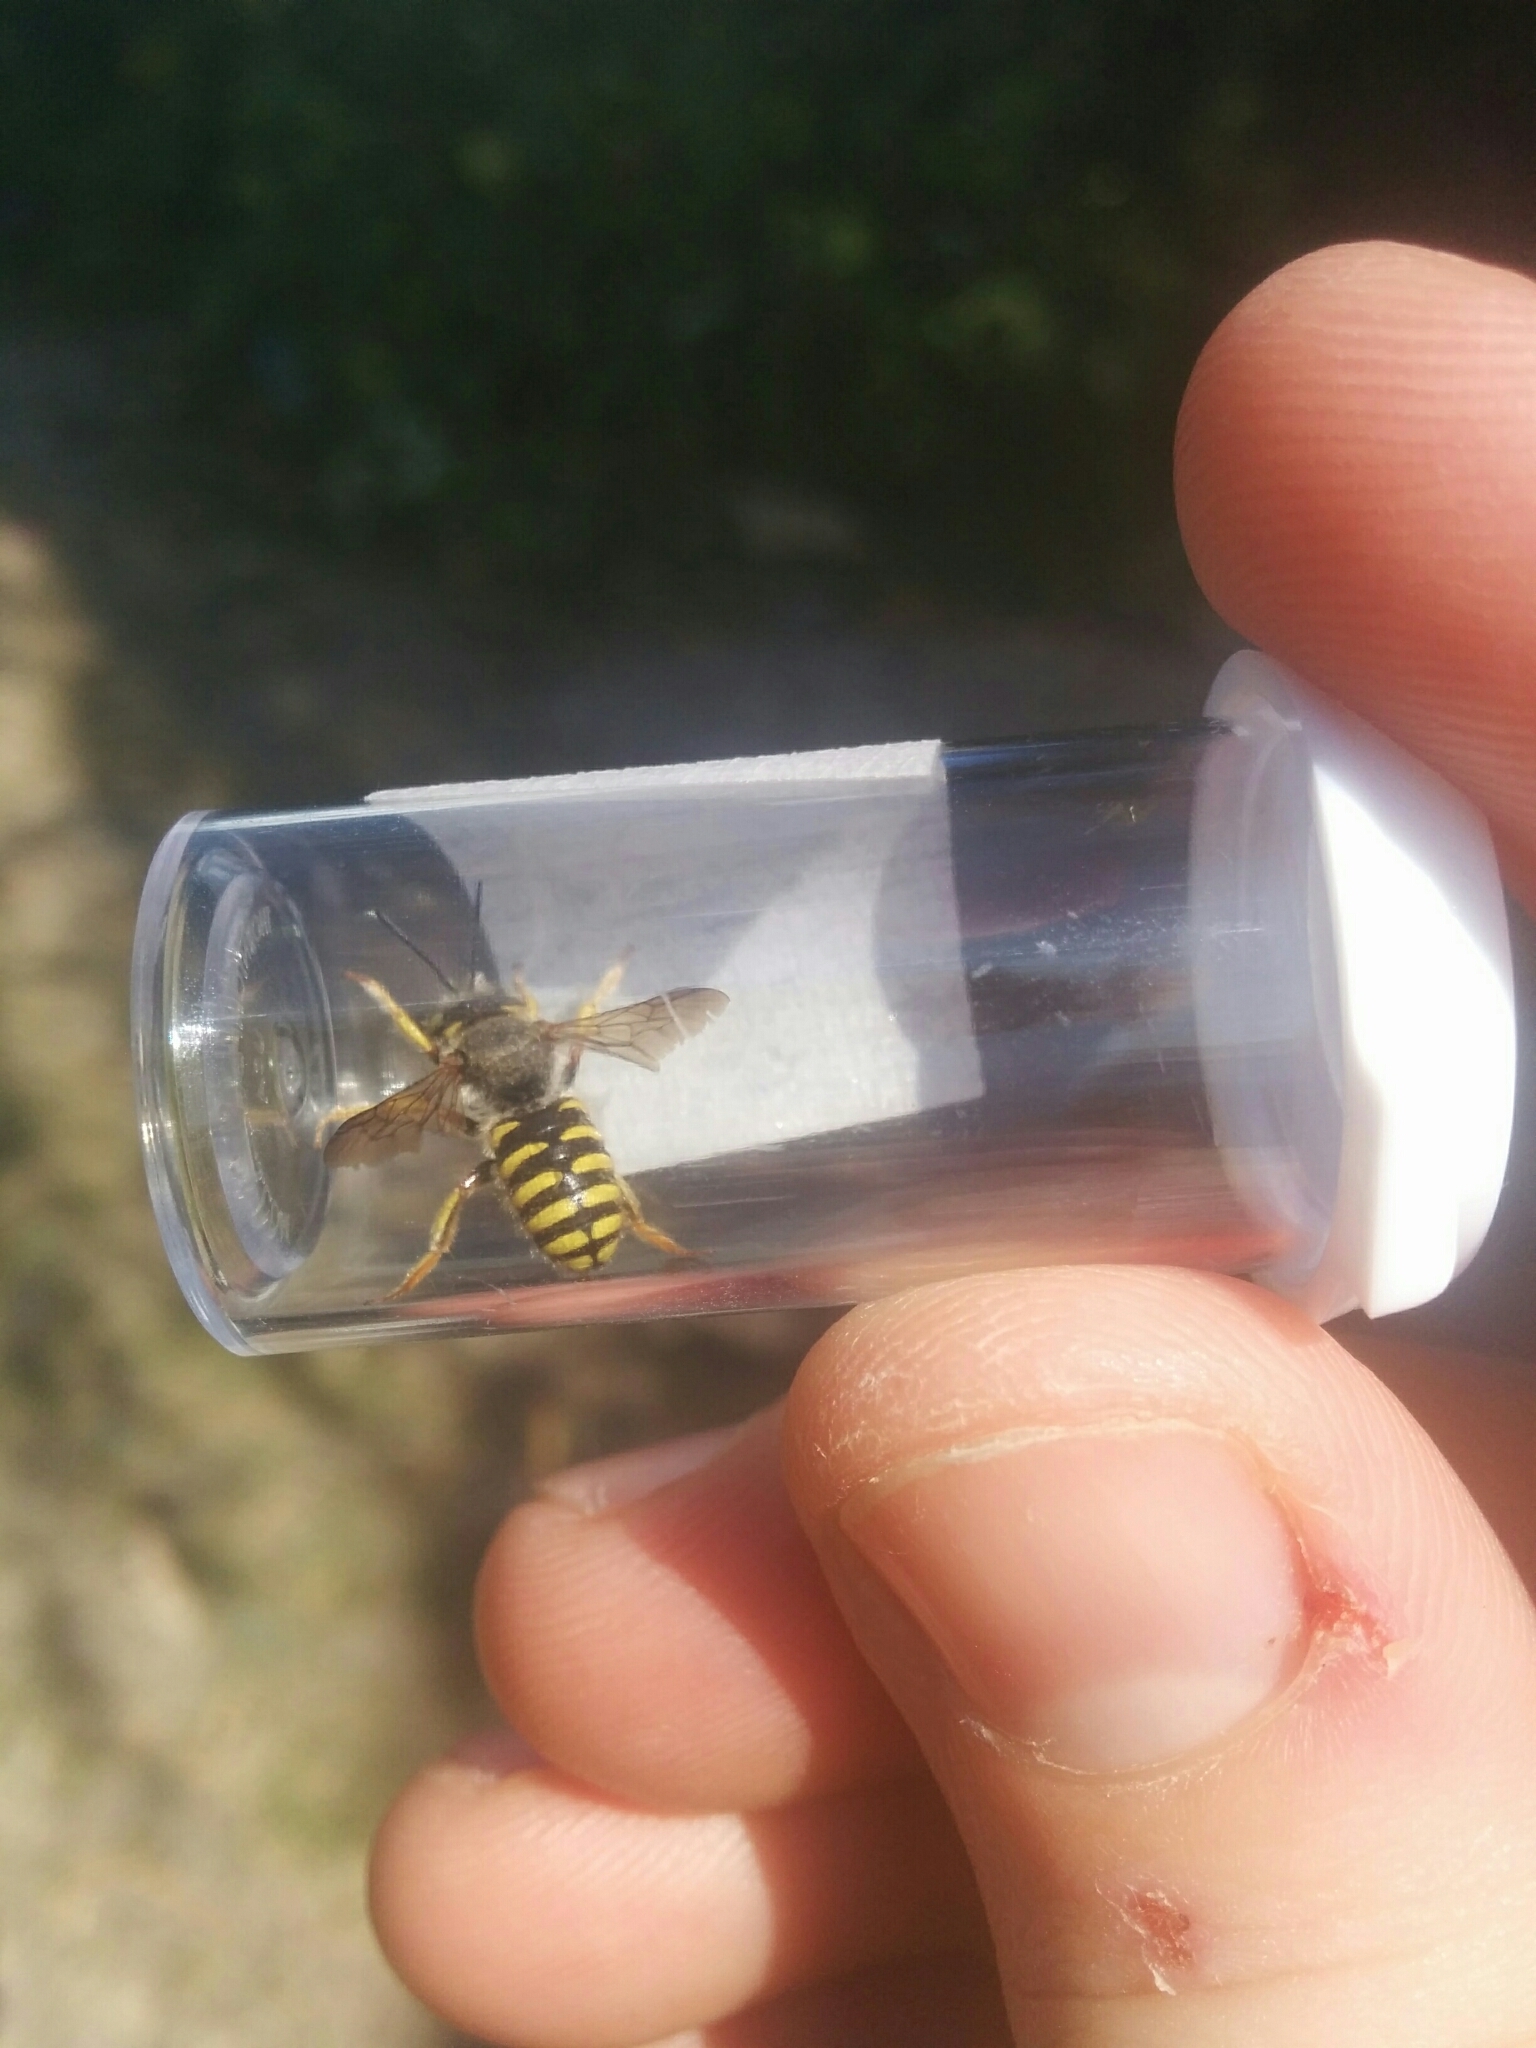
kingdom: Animalia
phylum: Arthropoda
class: Insecta
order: Hymenoptera
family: Megachilidae
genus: Anthidium
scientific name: Anthidium oblongatum
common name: Oblong wool carder bee
